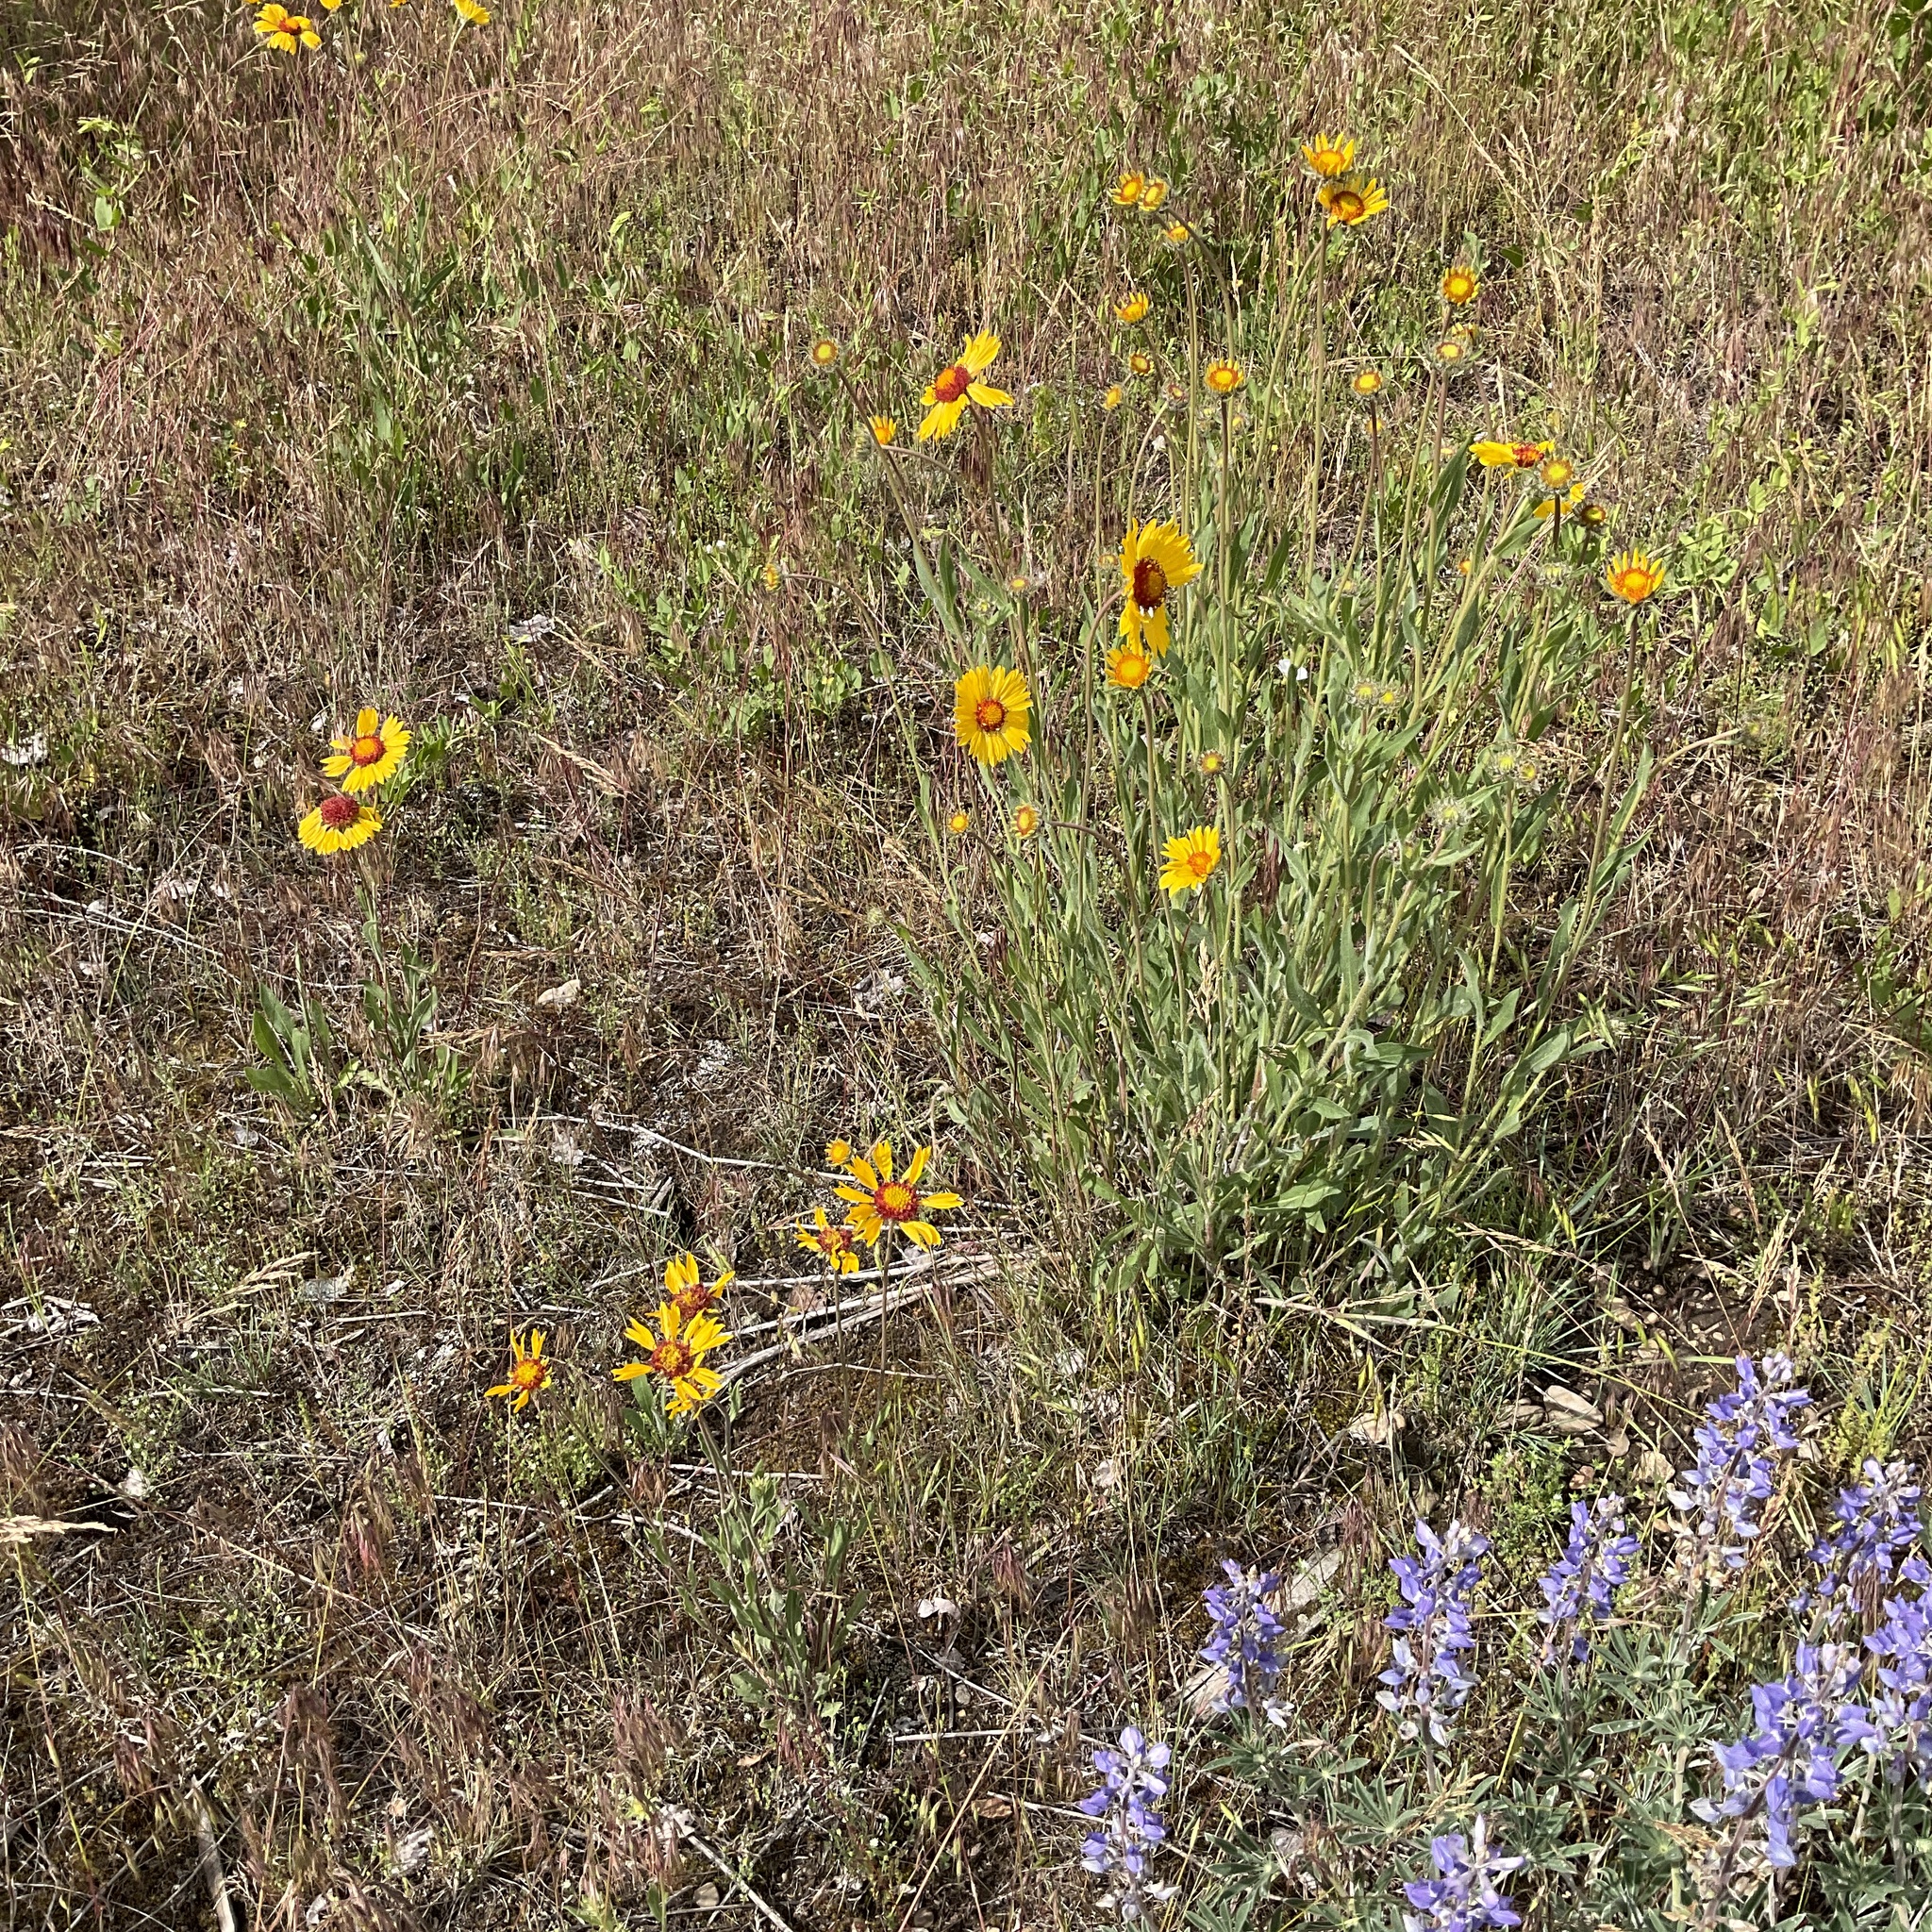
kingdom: Plantae
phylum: Tracheophyta
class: Magnoliopsida
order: Asterales
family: Asteraceae
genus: Gaillardia
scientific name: Gaillardia aristata
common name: Blanket-flower
